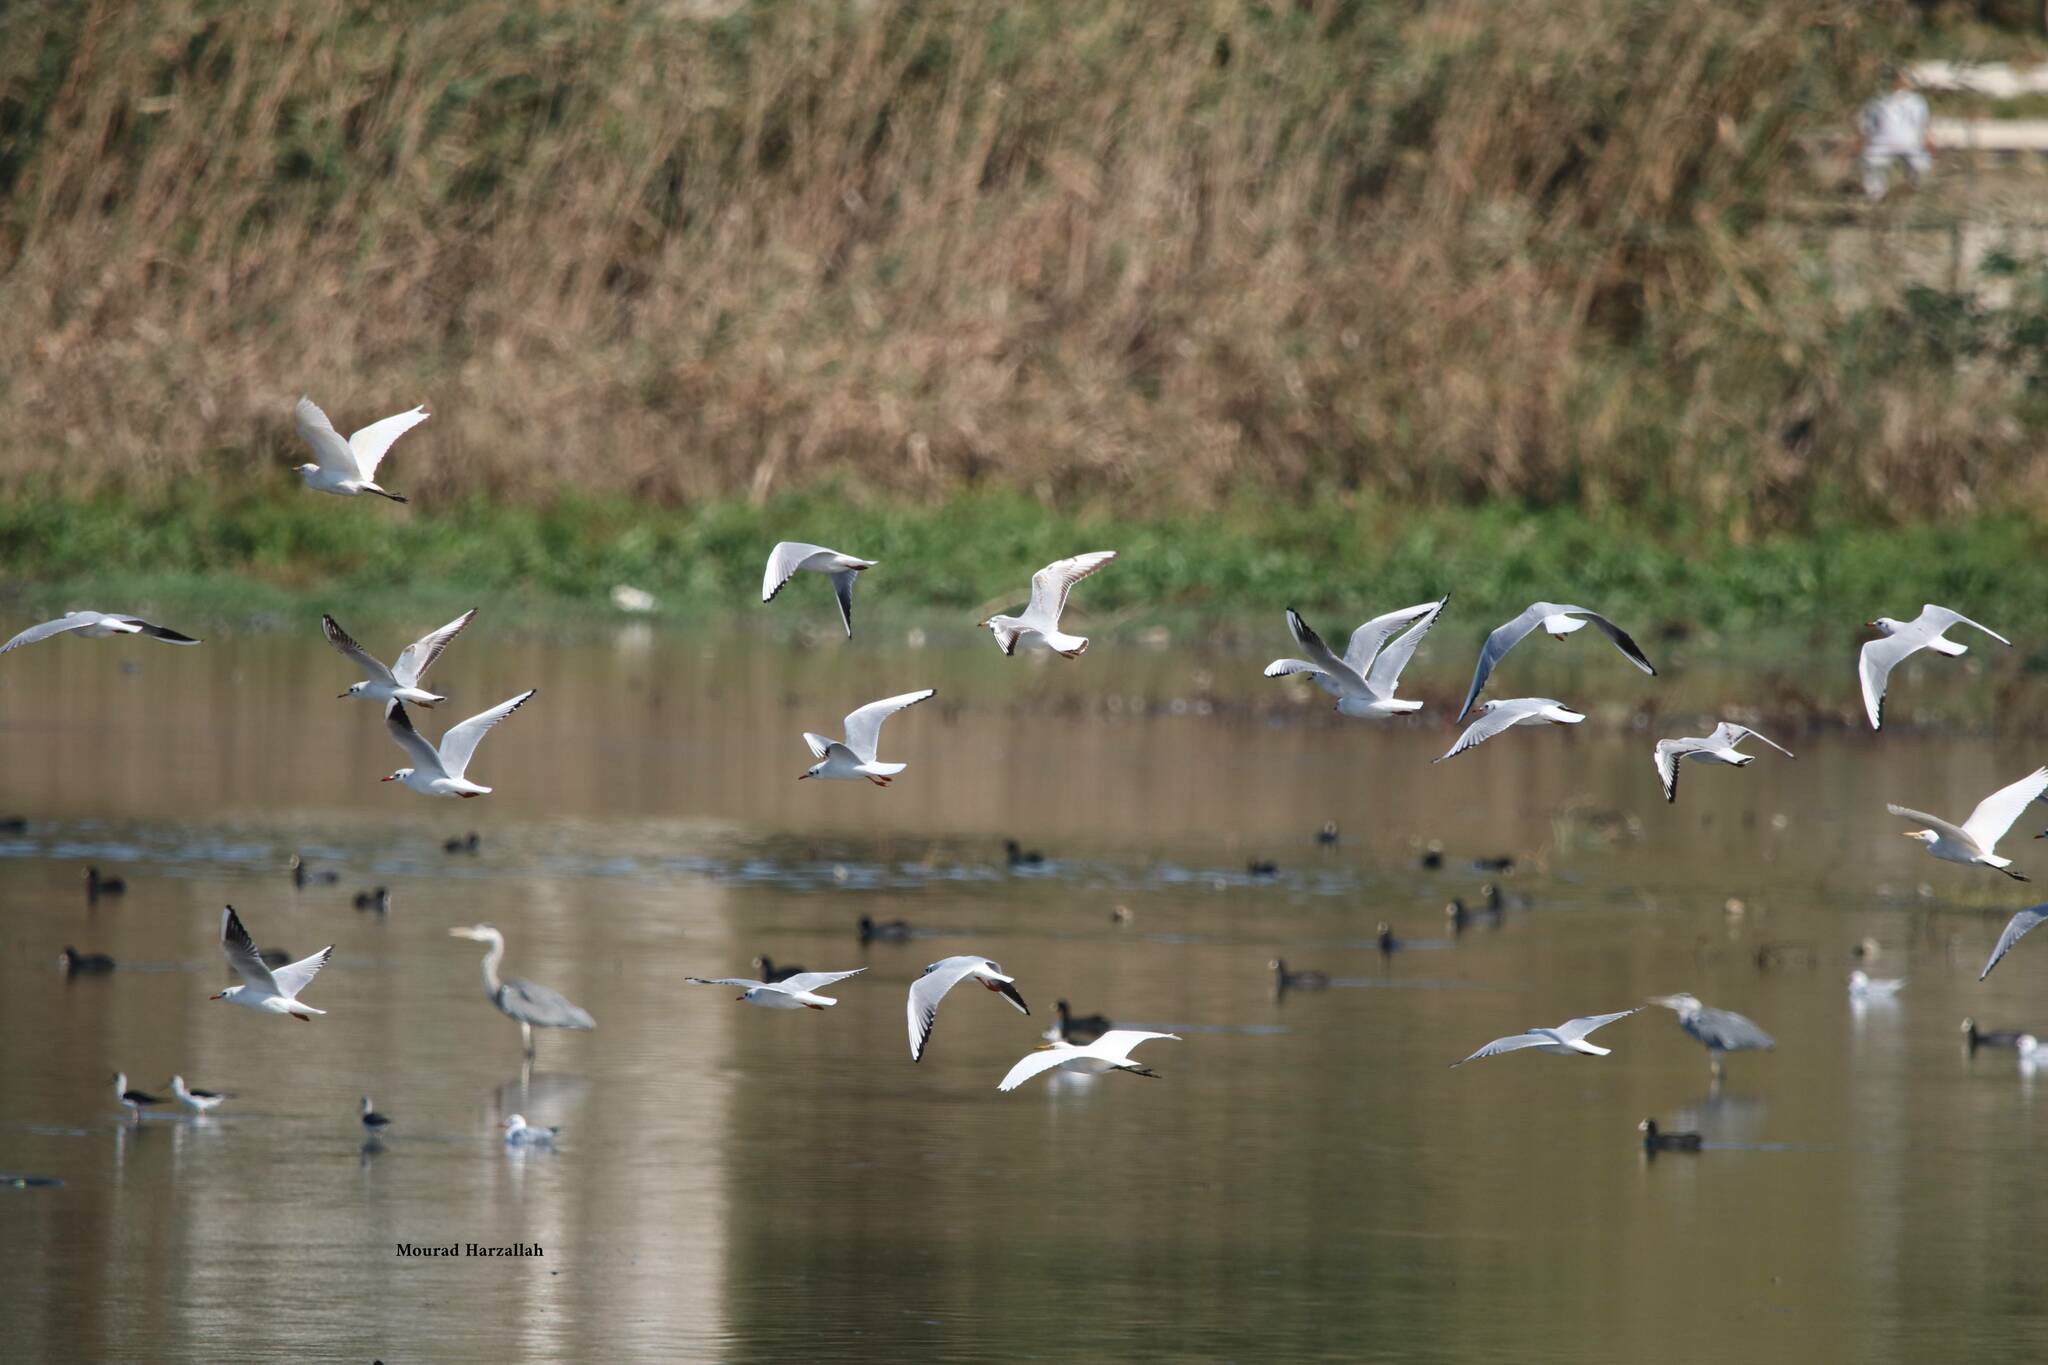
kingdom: Animalia
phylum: Chordata
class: Aves
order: Charadriiformes
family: Laridae
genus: Chroicocephalus
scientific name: Chroicocephalus ridibundus
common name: Black-headed gull
